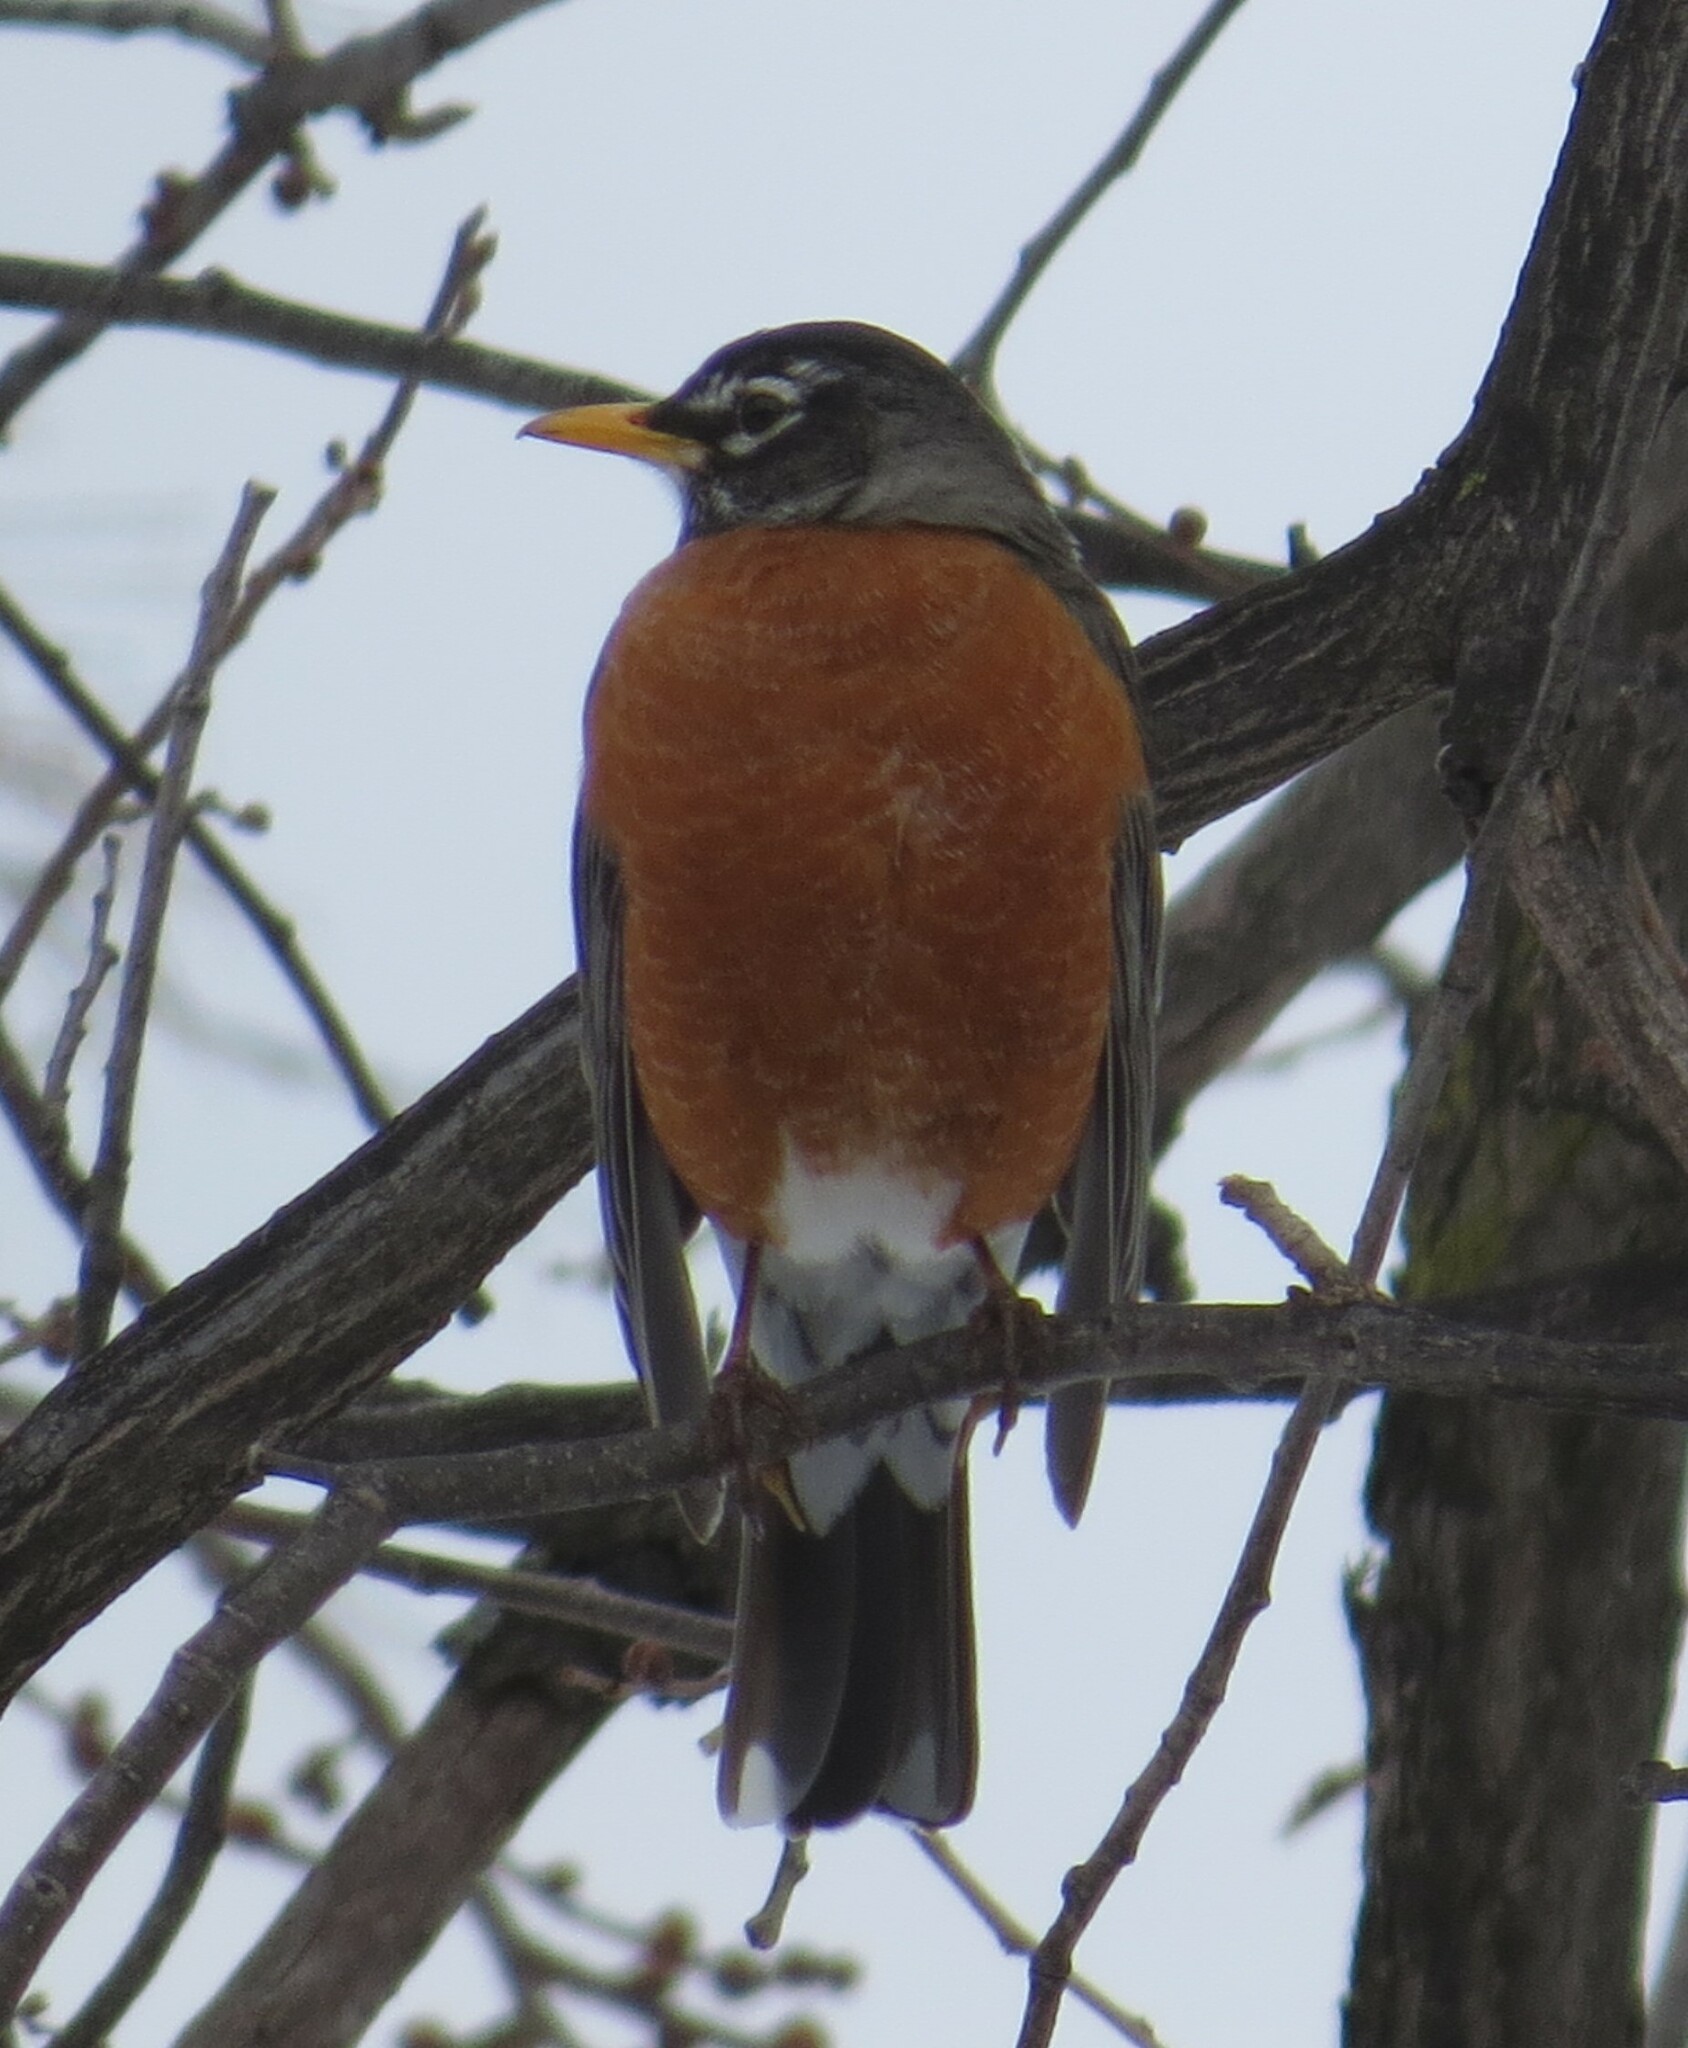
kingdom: Animalia
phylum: Chordata
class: Aves
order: Passeriformes
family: Turdidae
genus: Turdus
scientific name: Turdus migratorius
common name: American robin
